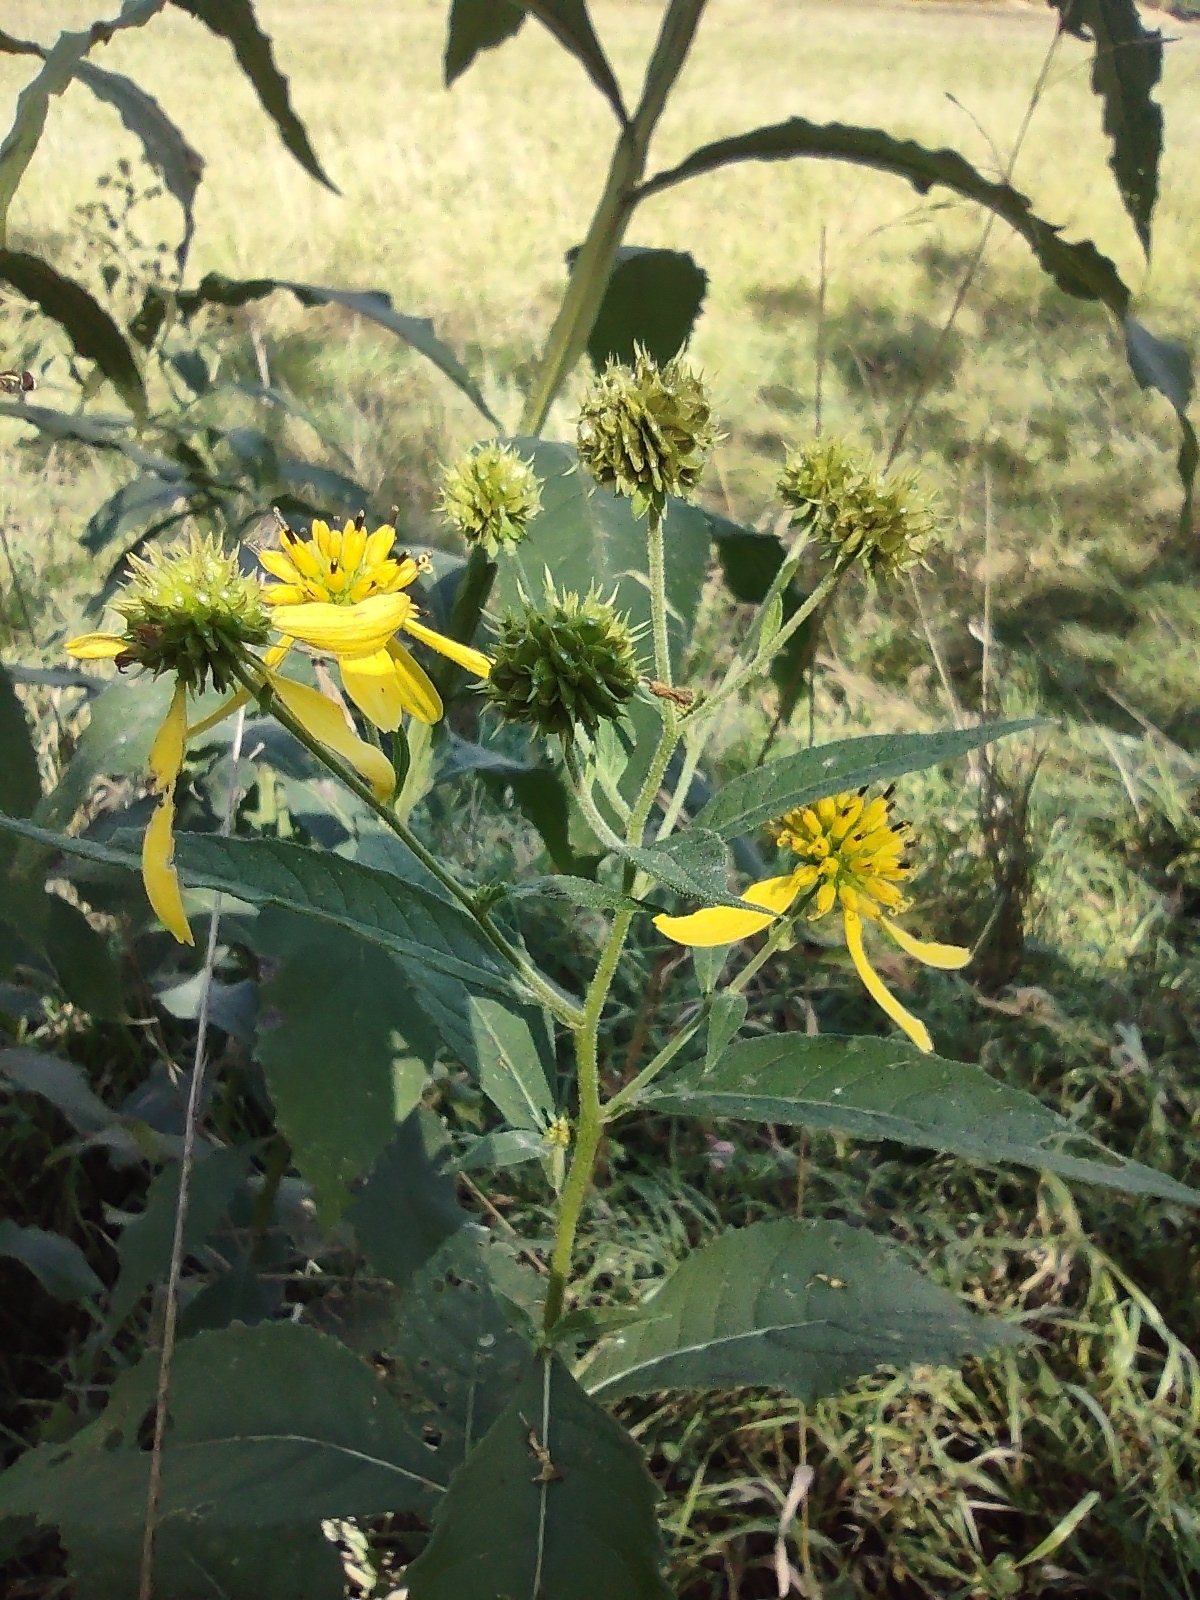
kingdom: Plantae
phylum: Tracheophyta
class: Magnoliopsida
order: Asterales
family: Asteraceae
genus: Verbesina
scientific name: Verbesina alternifolia
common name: Wingstem
